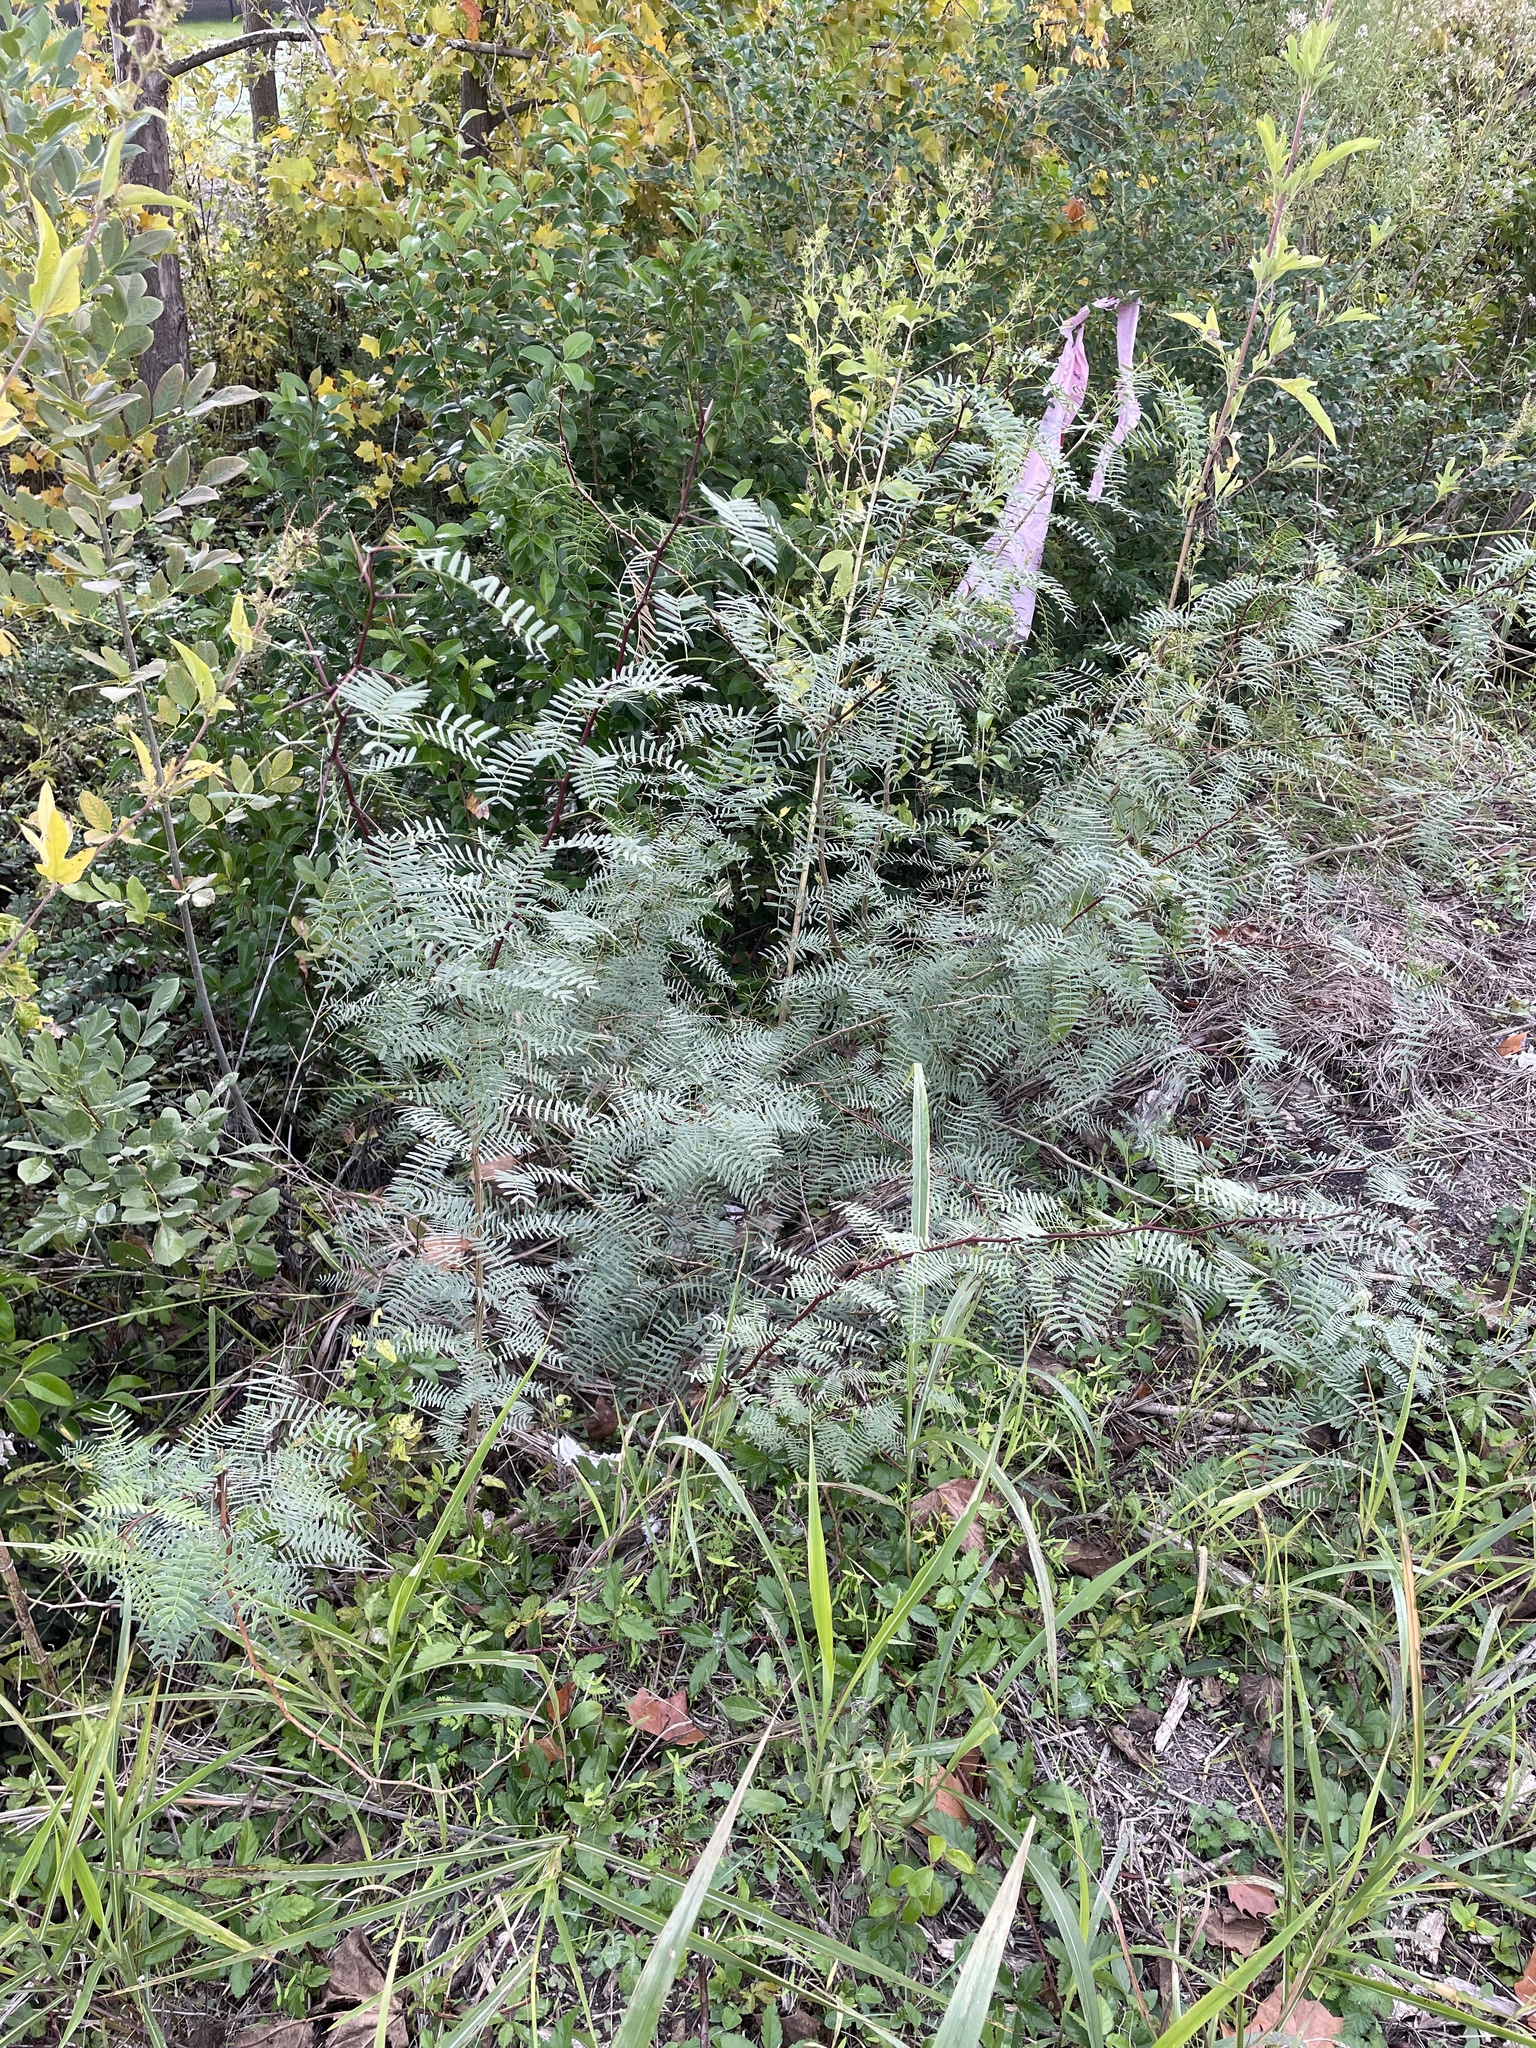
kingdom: Plantae
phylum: Tracheophyta
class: Magnoliopsida
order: Fabales
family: Fabaceae
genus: Prosopis
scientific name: Prosopis glandulosa
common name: Honey mesquite
